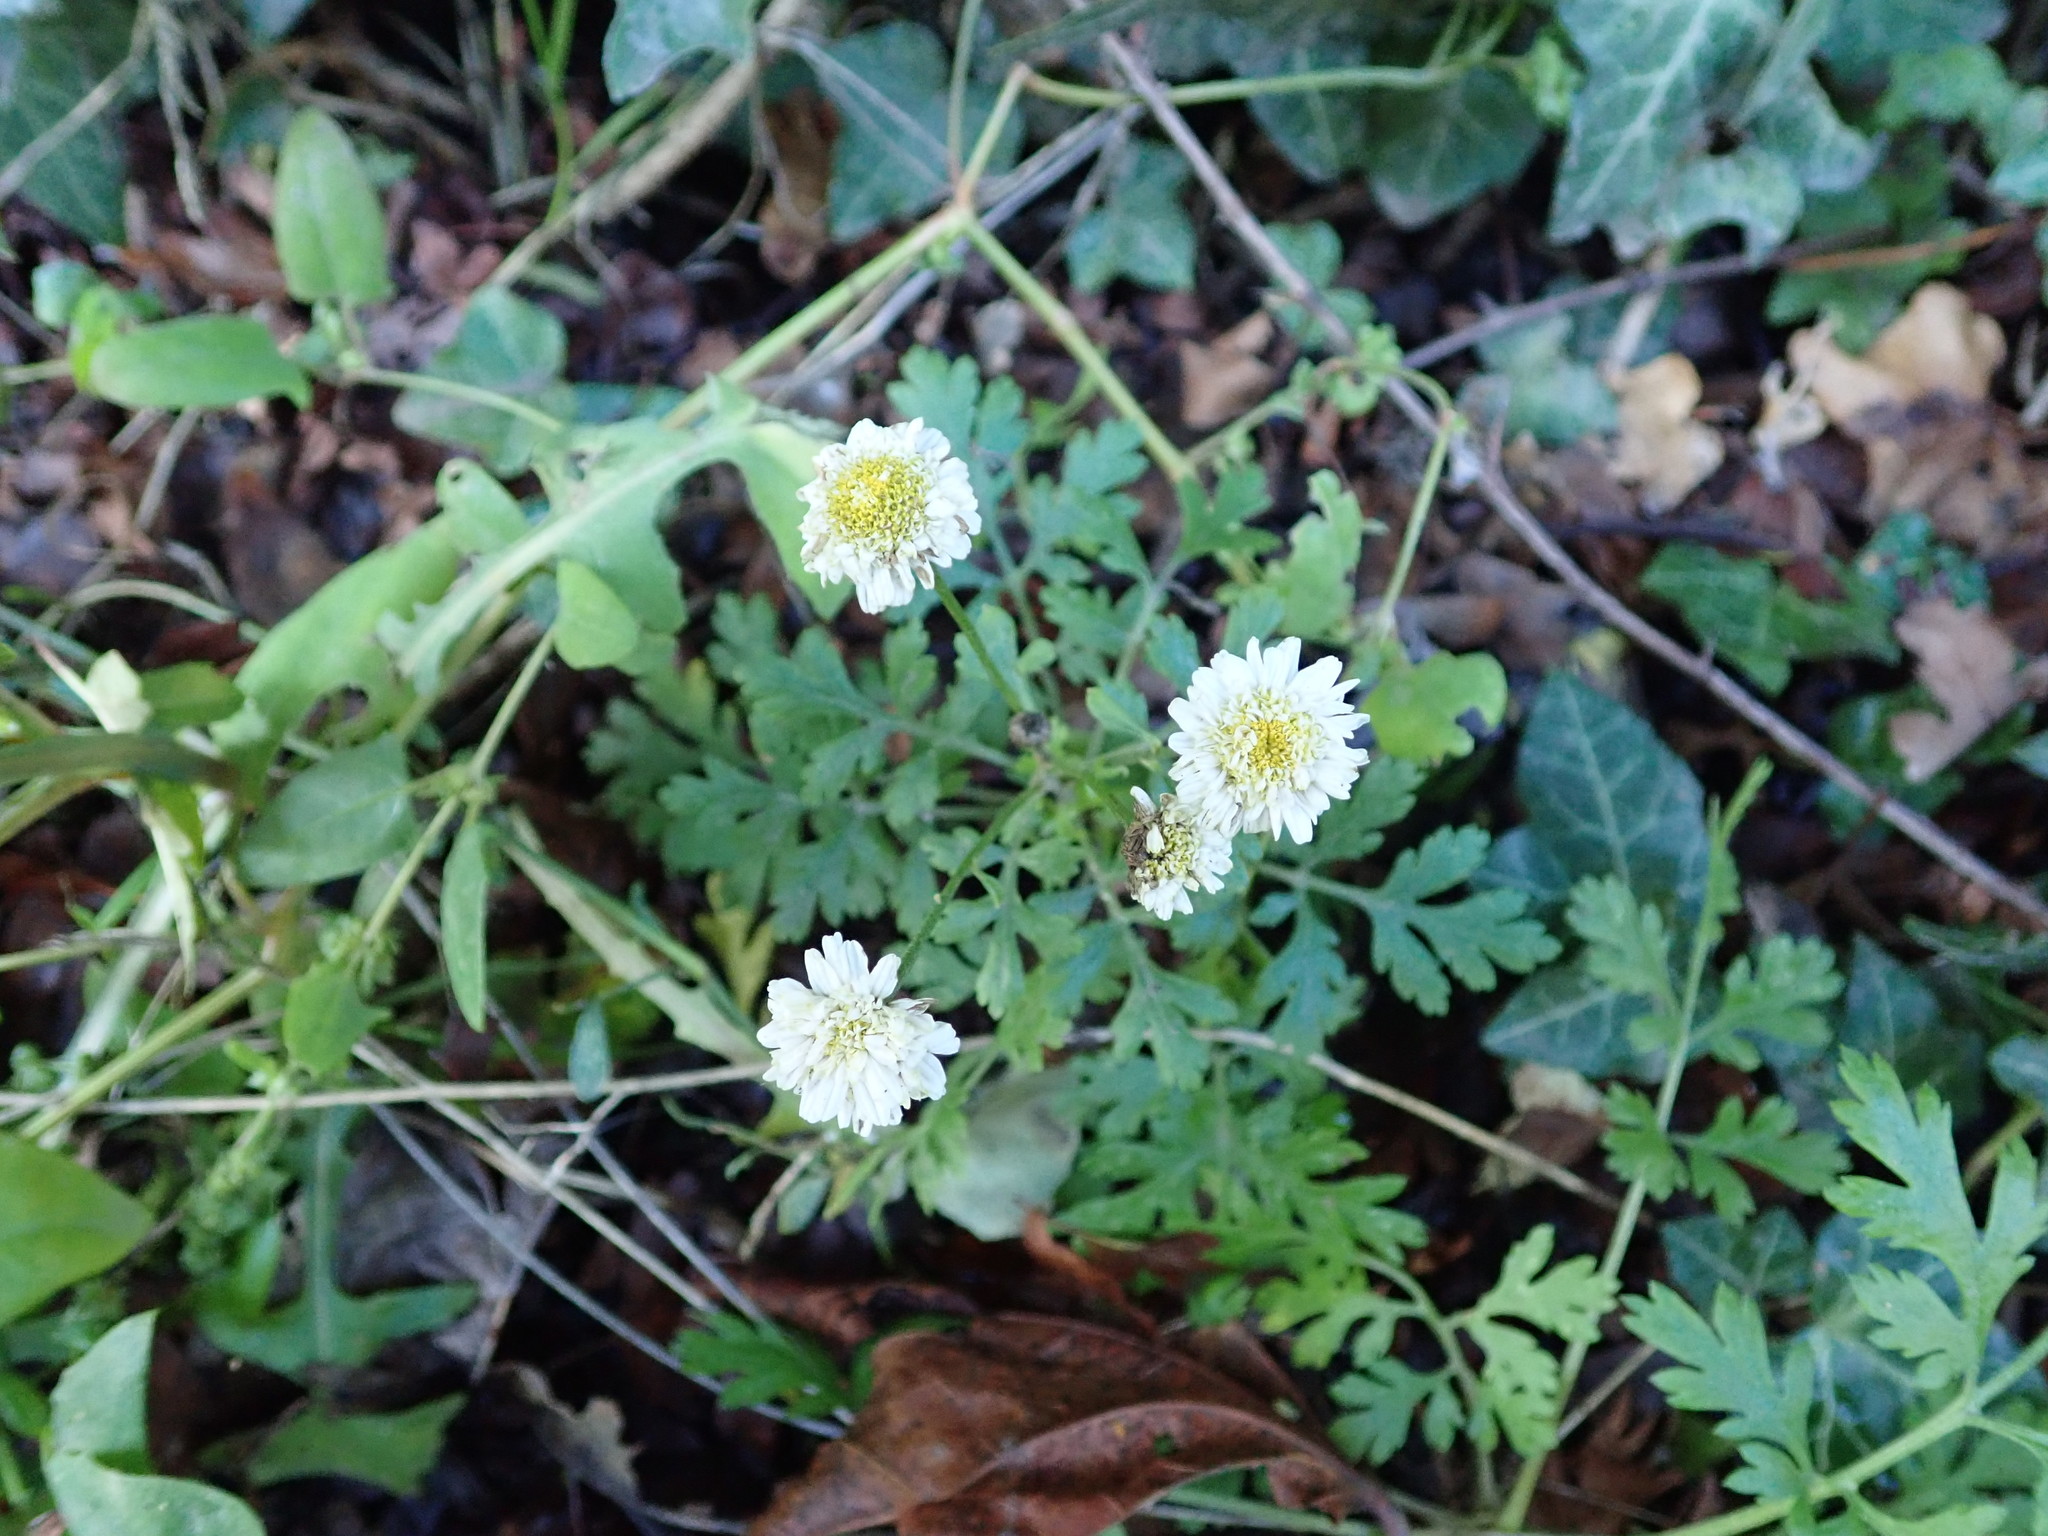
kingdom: Plantae
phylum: Tracheophyta
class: Magnoliopsida
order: Asterales
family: Asteraceae
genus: Tanacetum
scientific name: Tanacetum parthenium
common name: Feverfew
